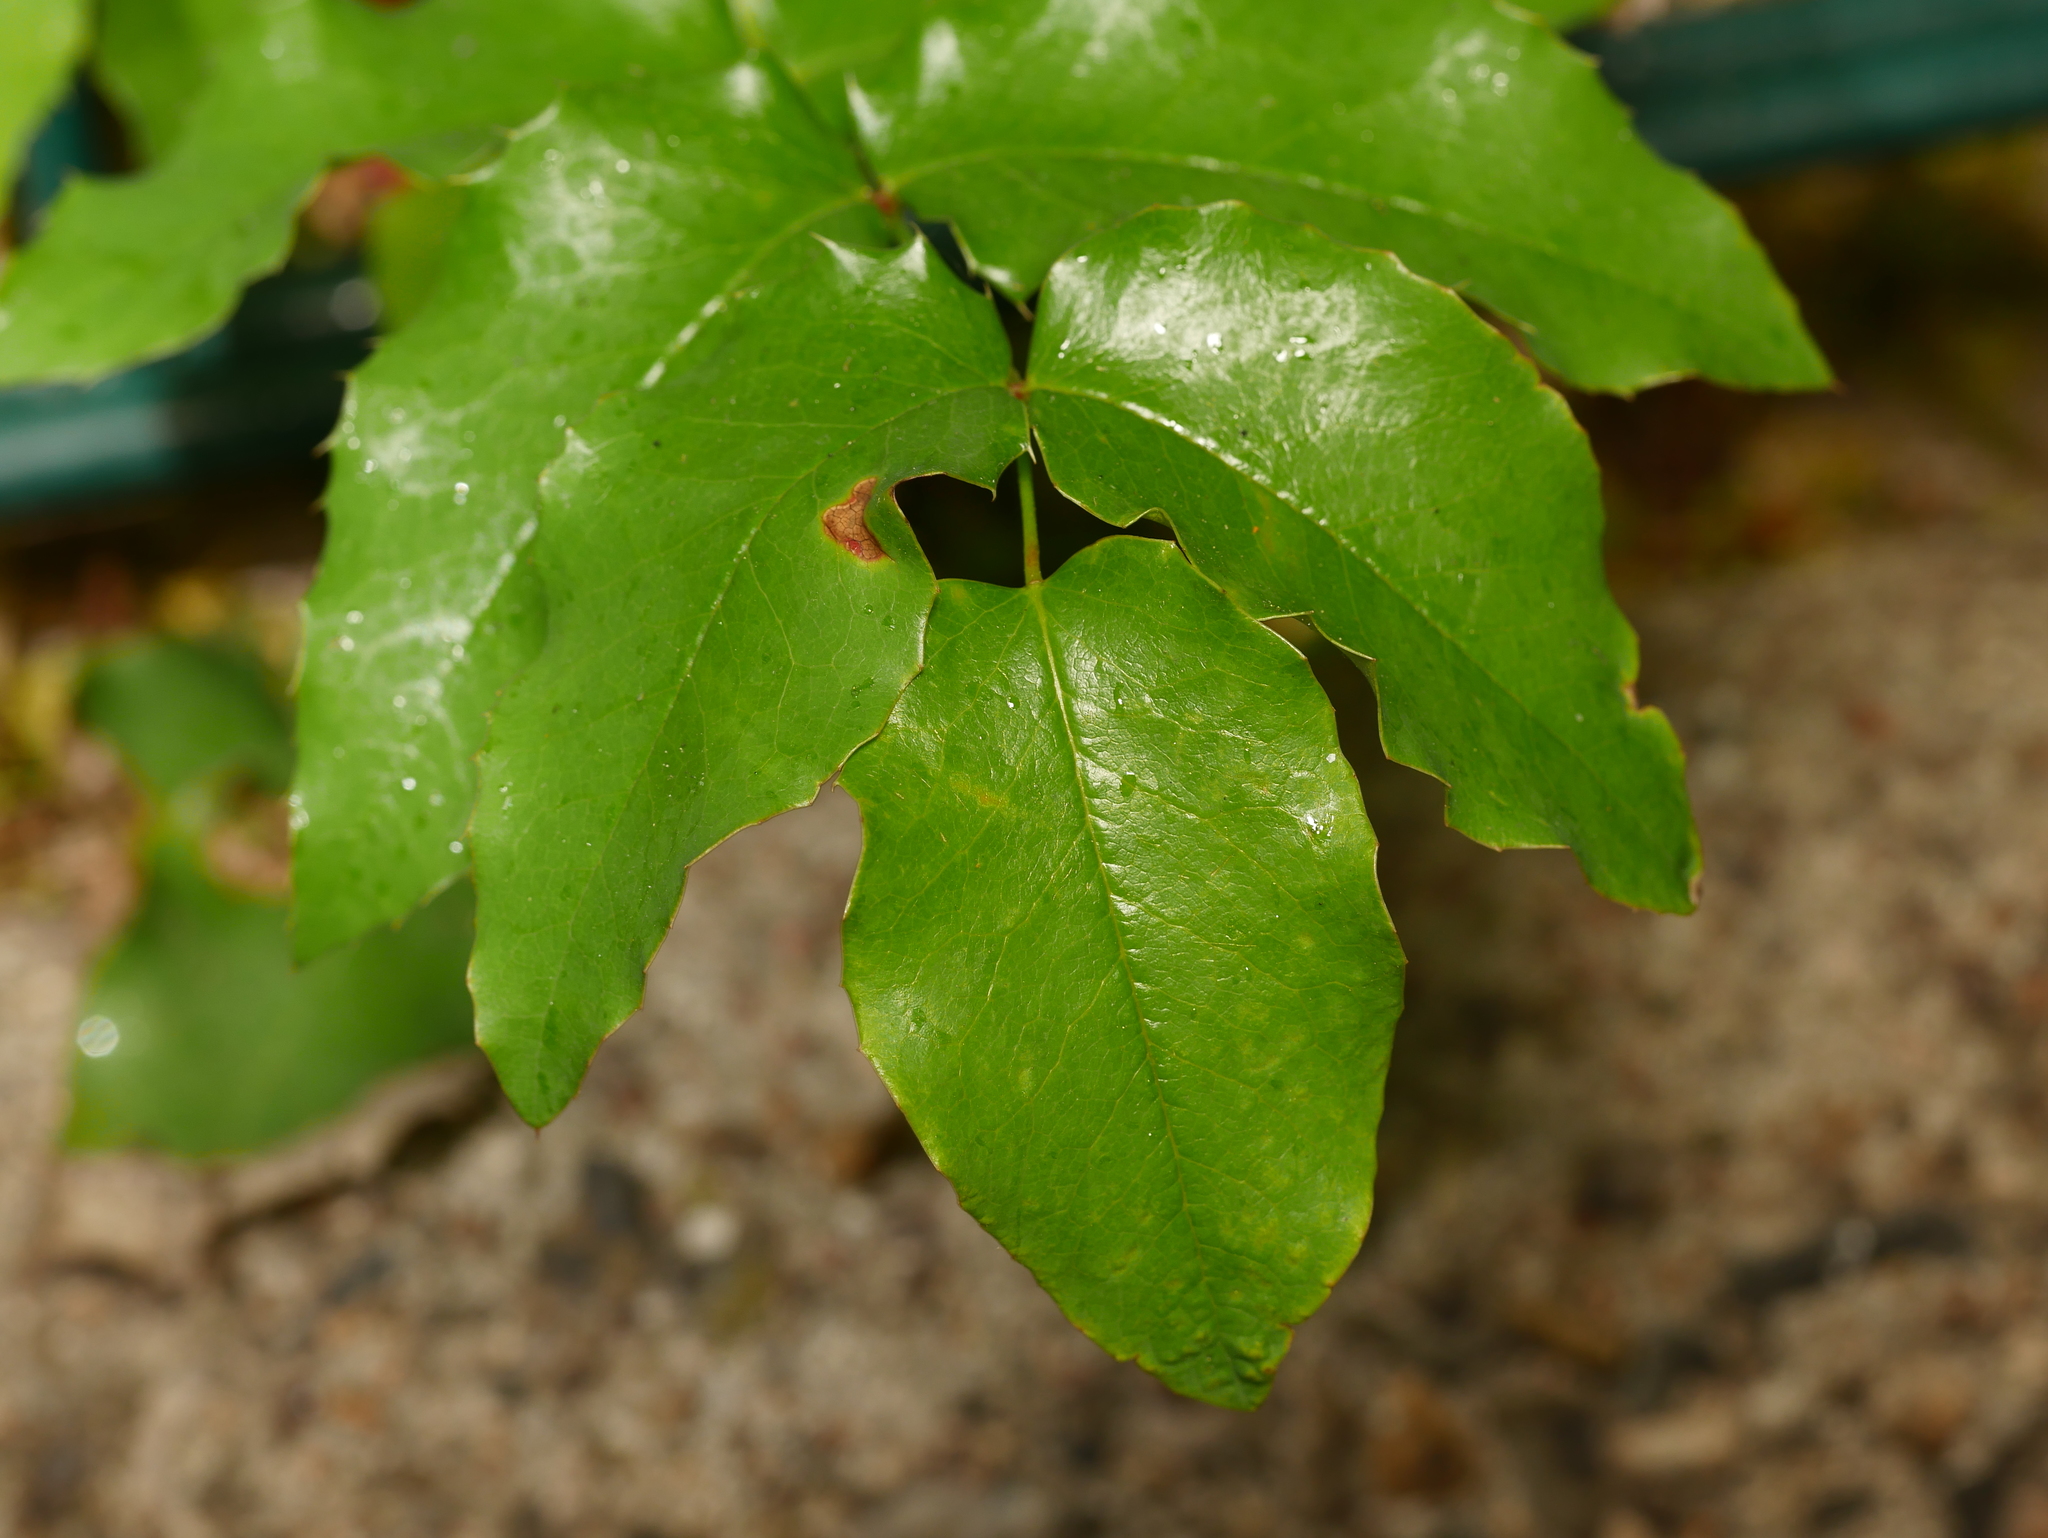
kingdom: Plantae
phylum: Tracheophyta
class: Magnoliopsida
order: Ranunculales
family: Berberidaceae
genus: Mahonia
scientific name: Mahonia aquifolium
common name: Oregon-grape
